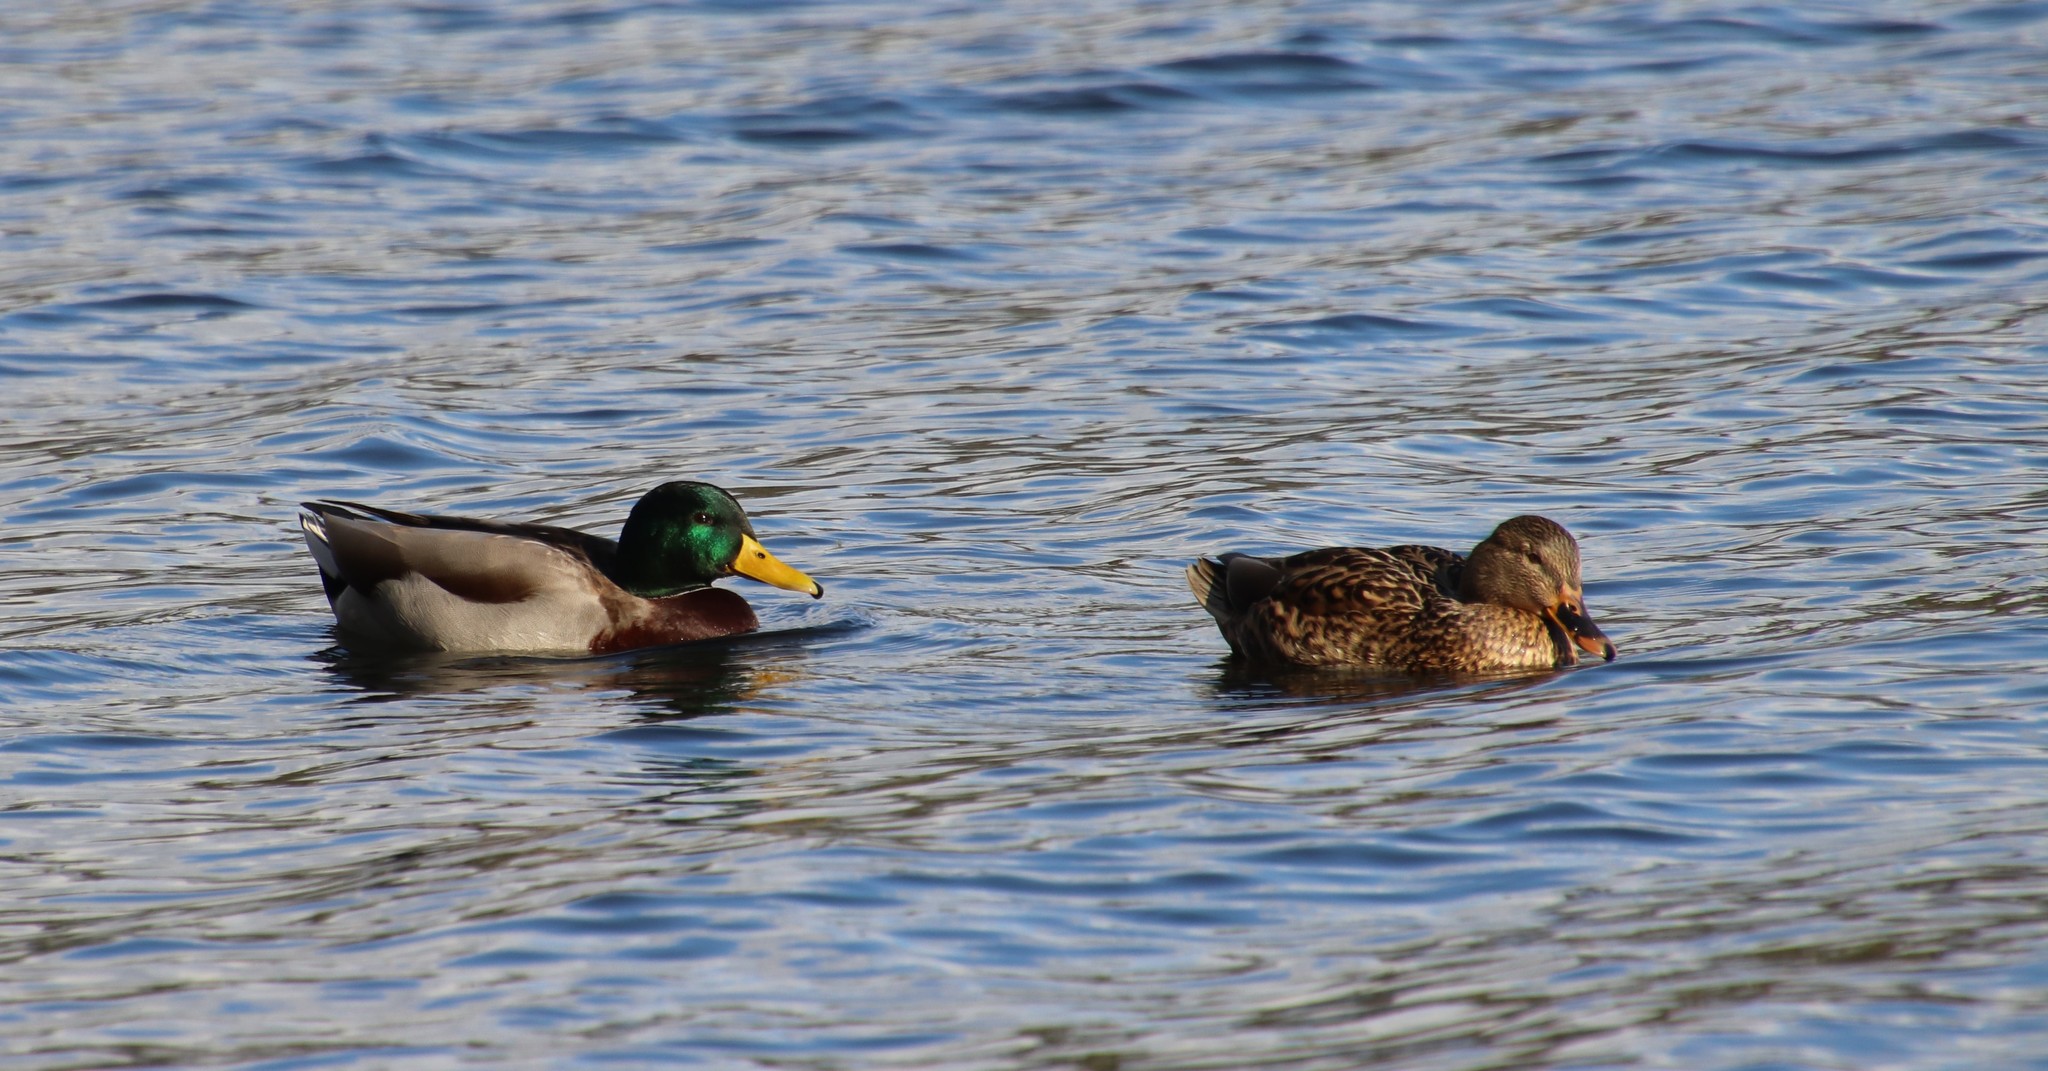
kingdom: Animalia
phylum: Chordata
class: Aves
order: Anseriformes
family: Anatidae
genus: Anas
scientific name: Anas platyrhynchos
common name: Mallard
